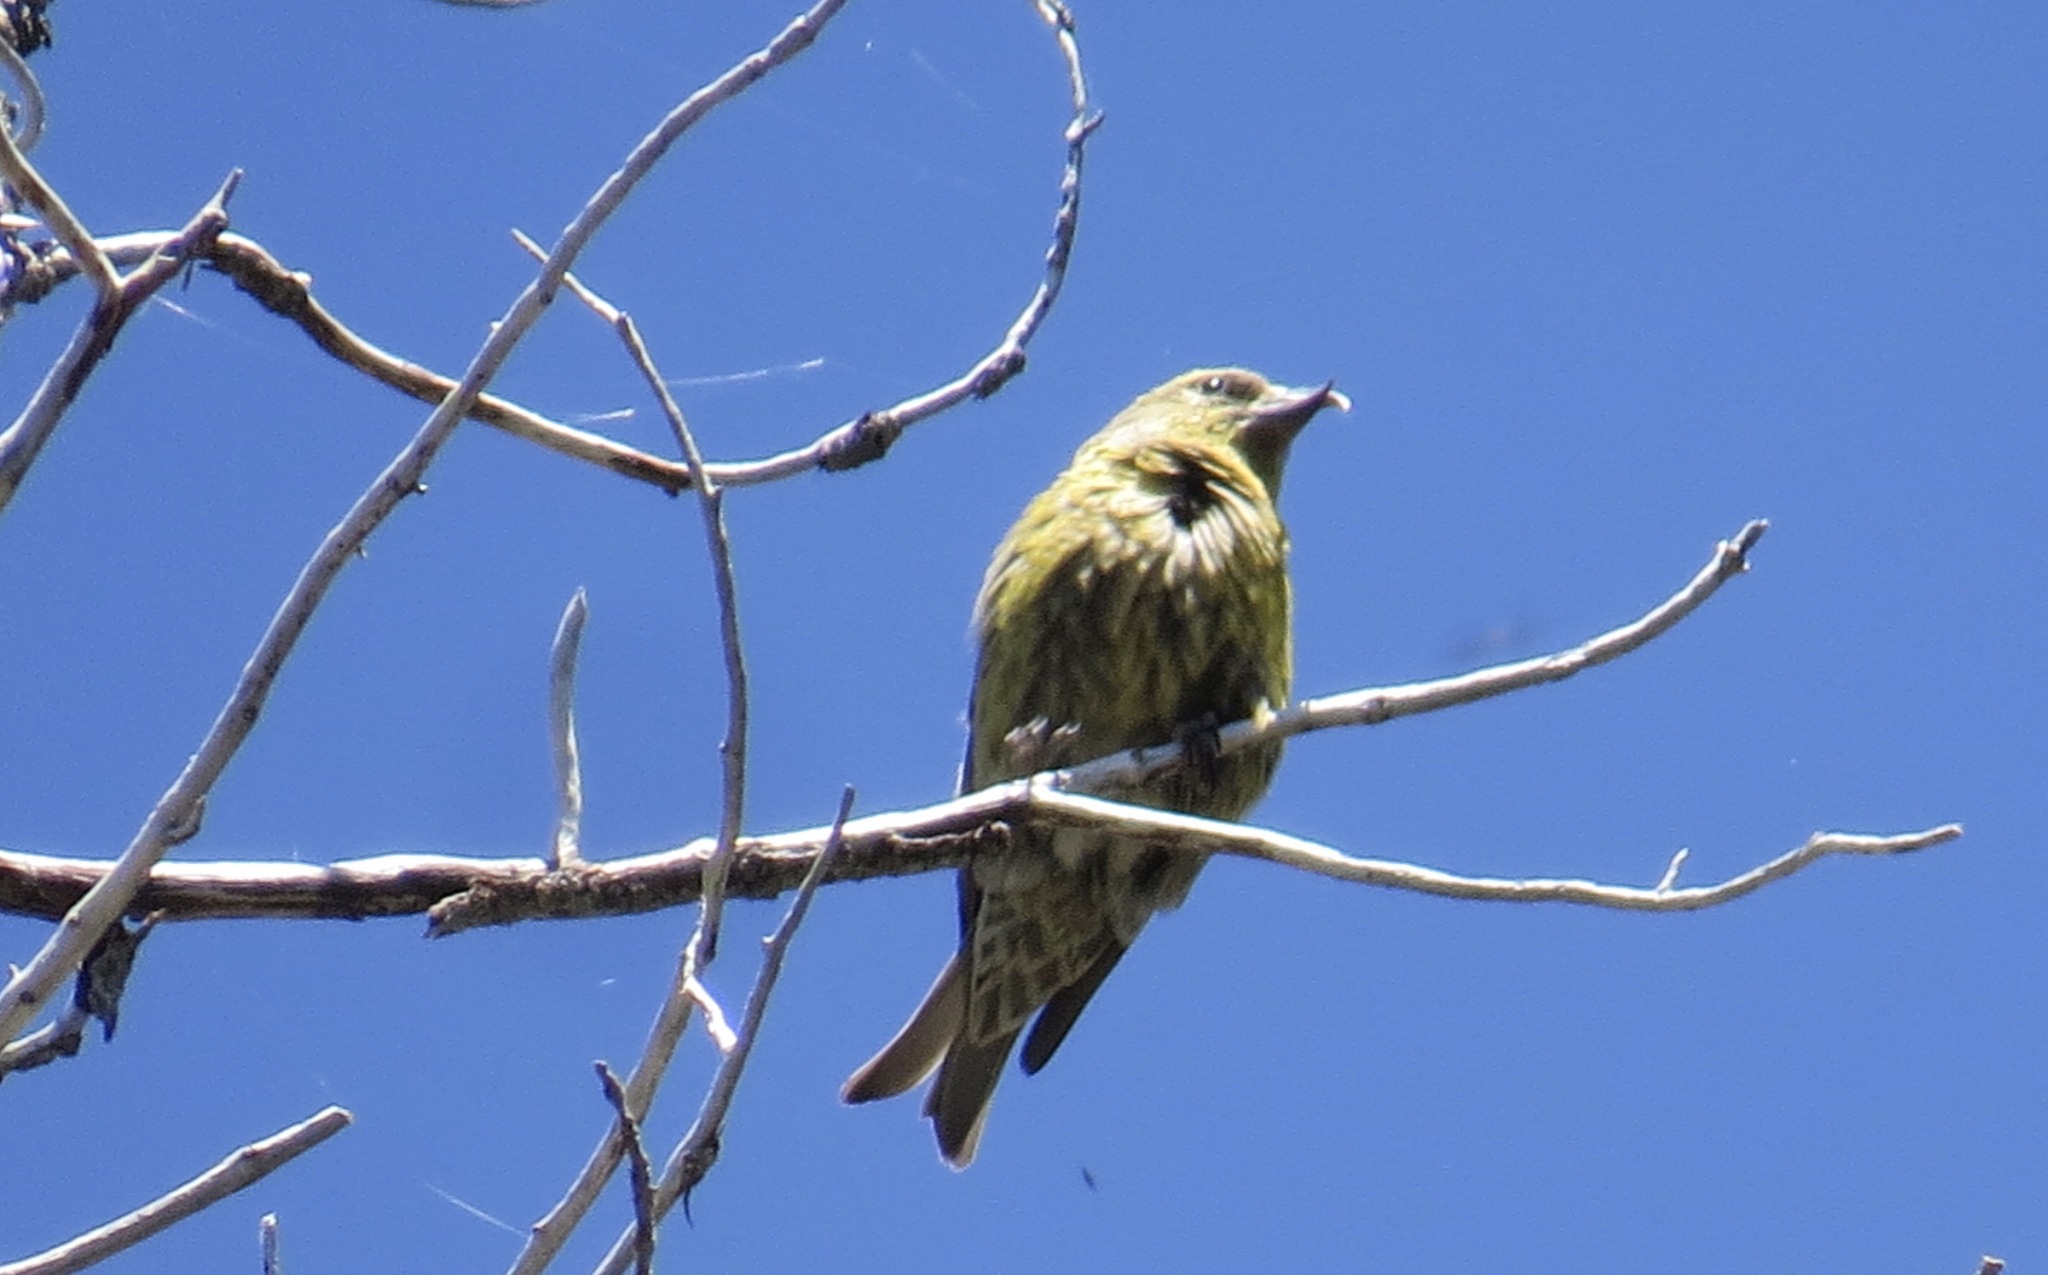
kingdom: Animalia
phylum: Chordata
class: Aves
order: Passeriformes
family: Fringillidae
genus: Loxia
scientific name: Loxia curvirostra
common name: Red crossbill
